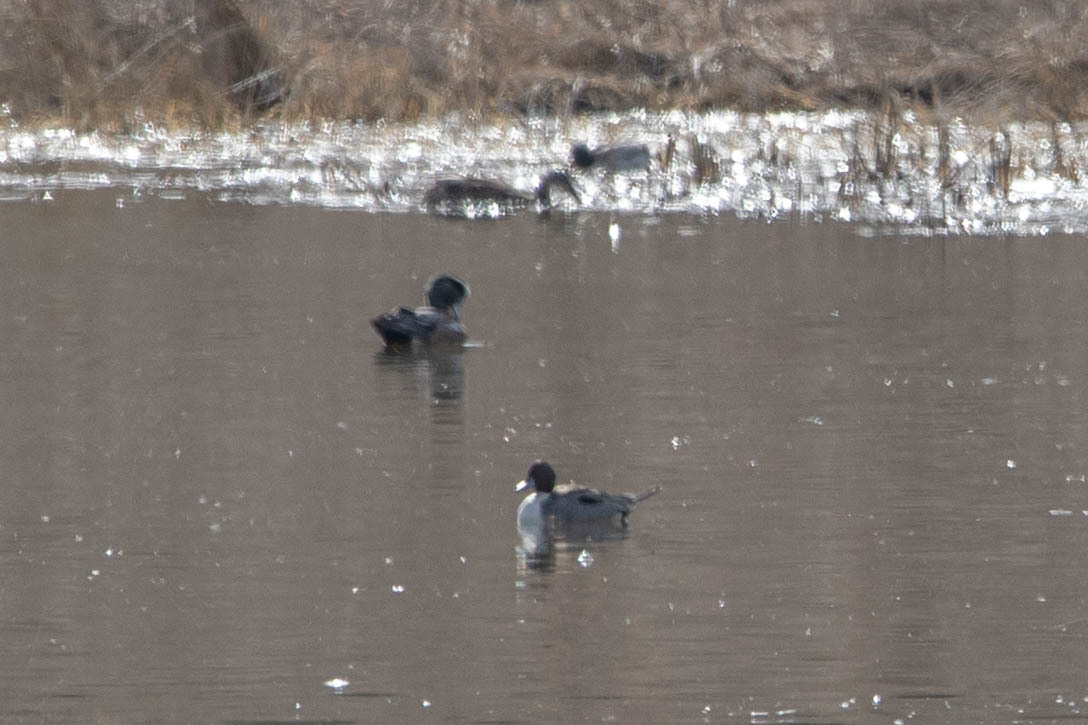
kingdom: Animalia
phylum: Chordata
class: Aves
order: Anseriformes
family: Anatidae
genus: Anas
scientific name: Anas acuta
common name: Northern pintail
